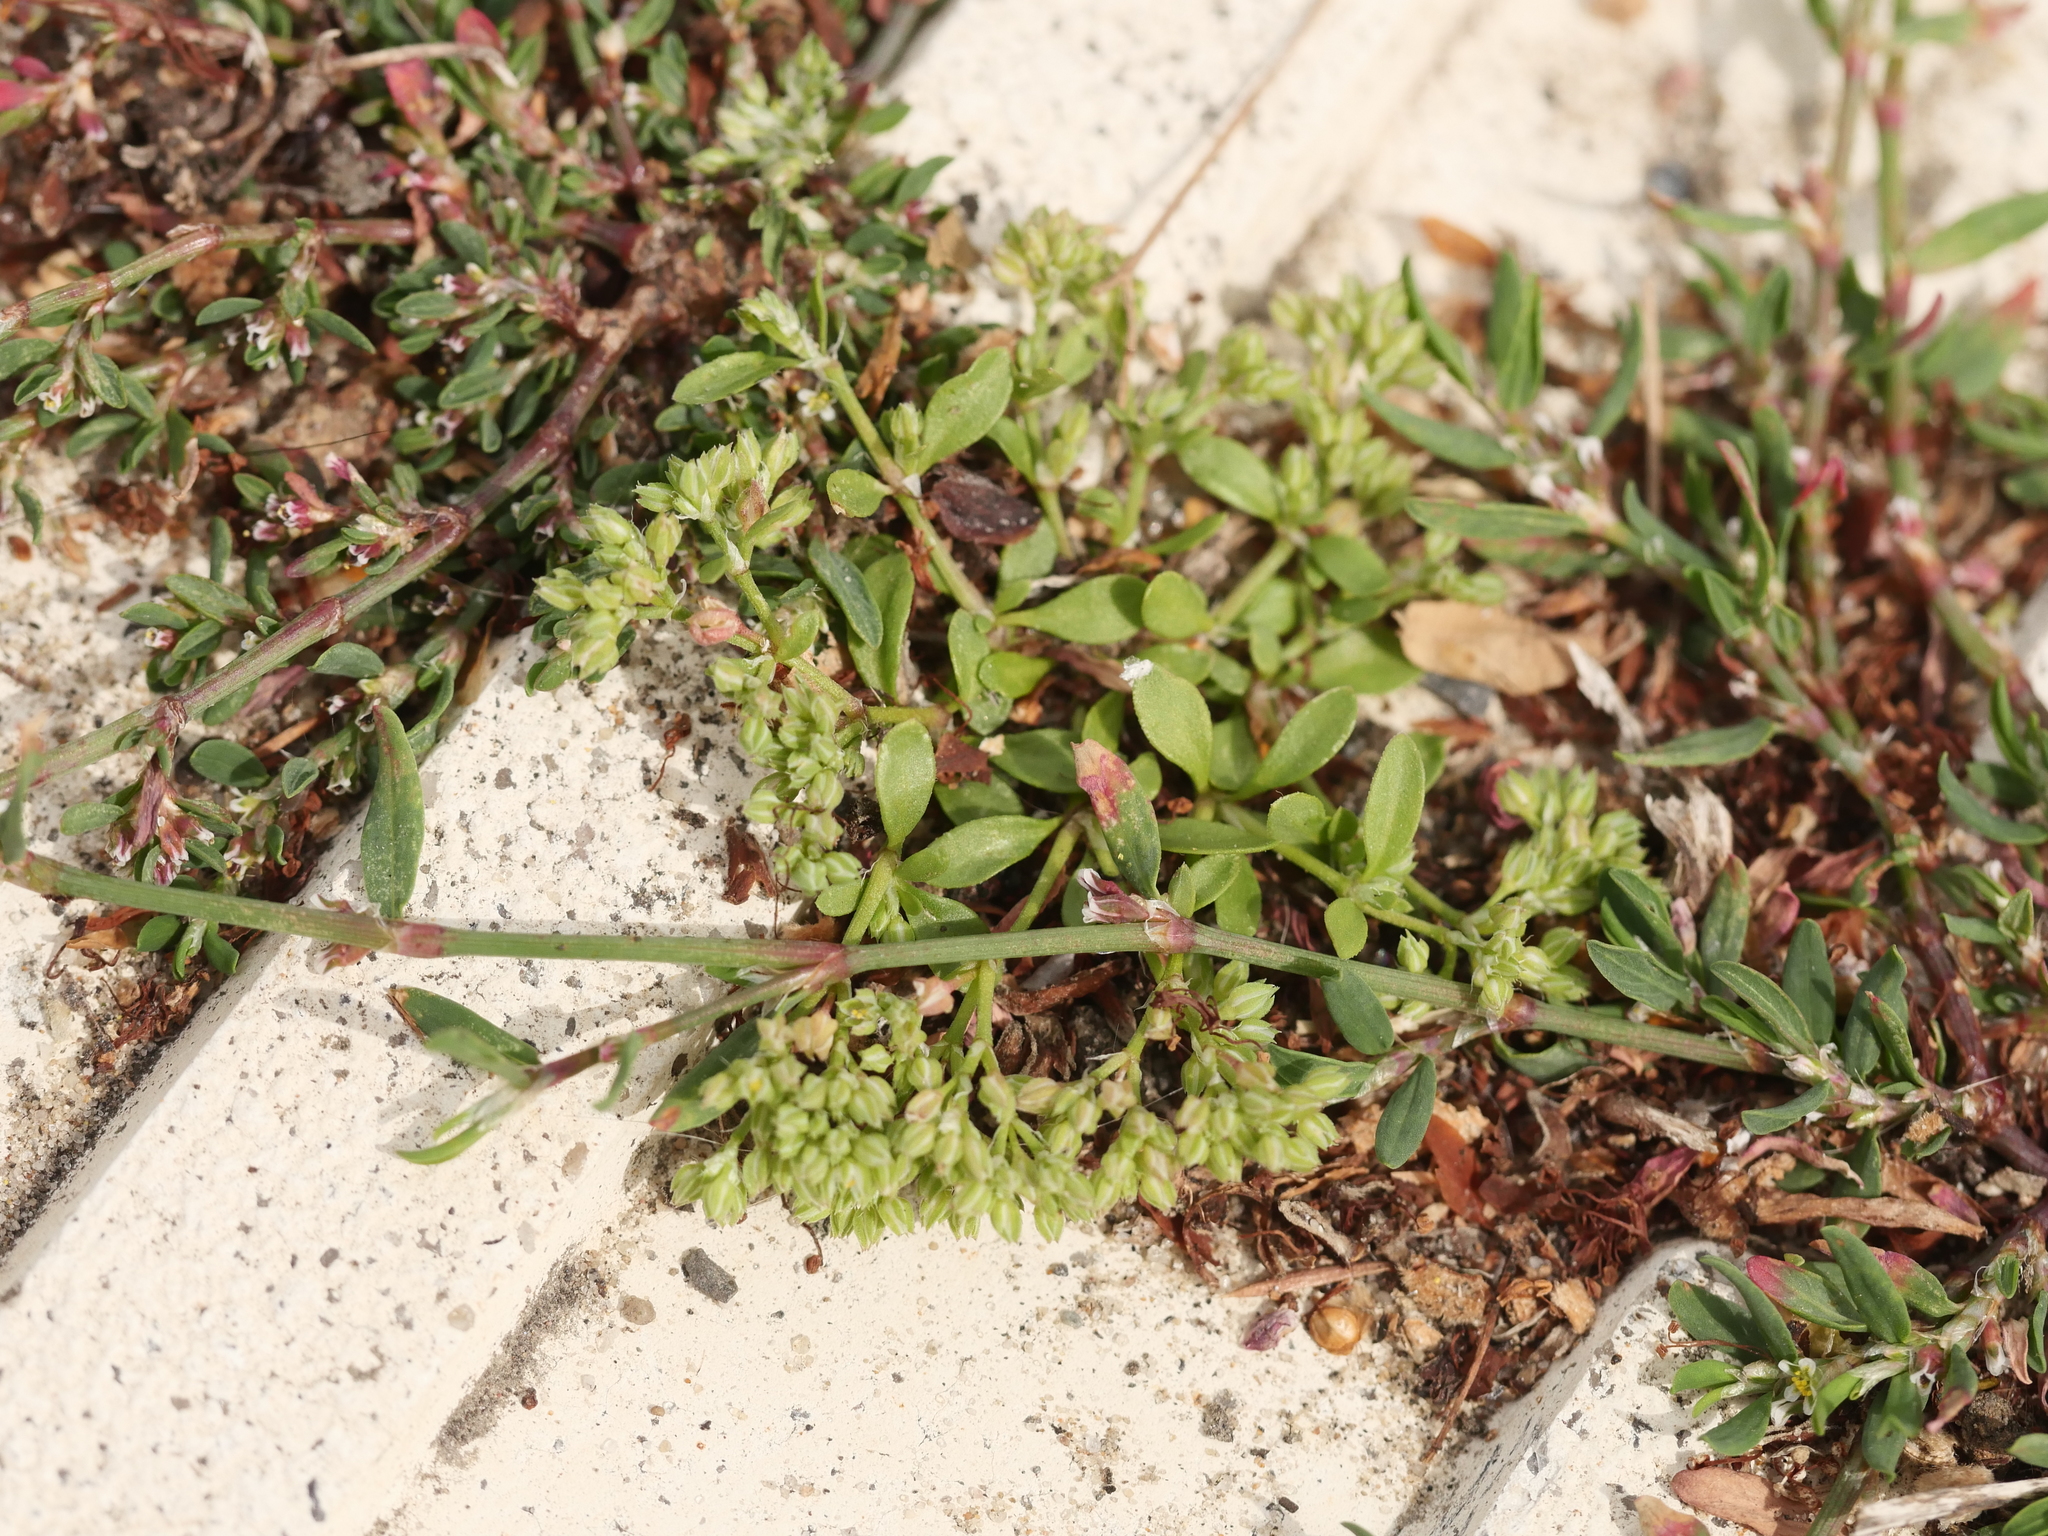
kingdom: Plantae
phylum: Tracheophyta
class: Magnoliopsida
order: Caryophyllales
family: Caryophyllaceae
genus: Polycarpon
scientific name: Polycarpon tetraphyllum
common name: Four-leaved all-seed
